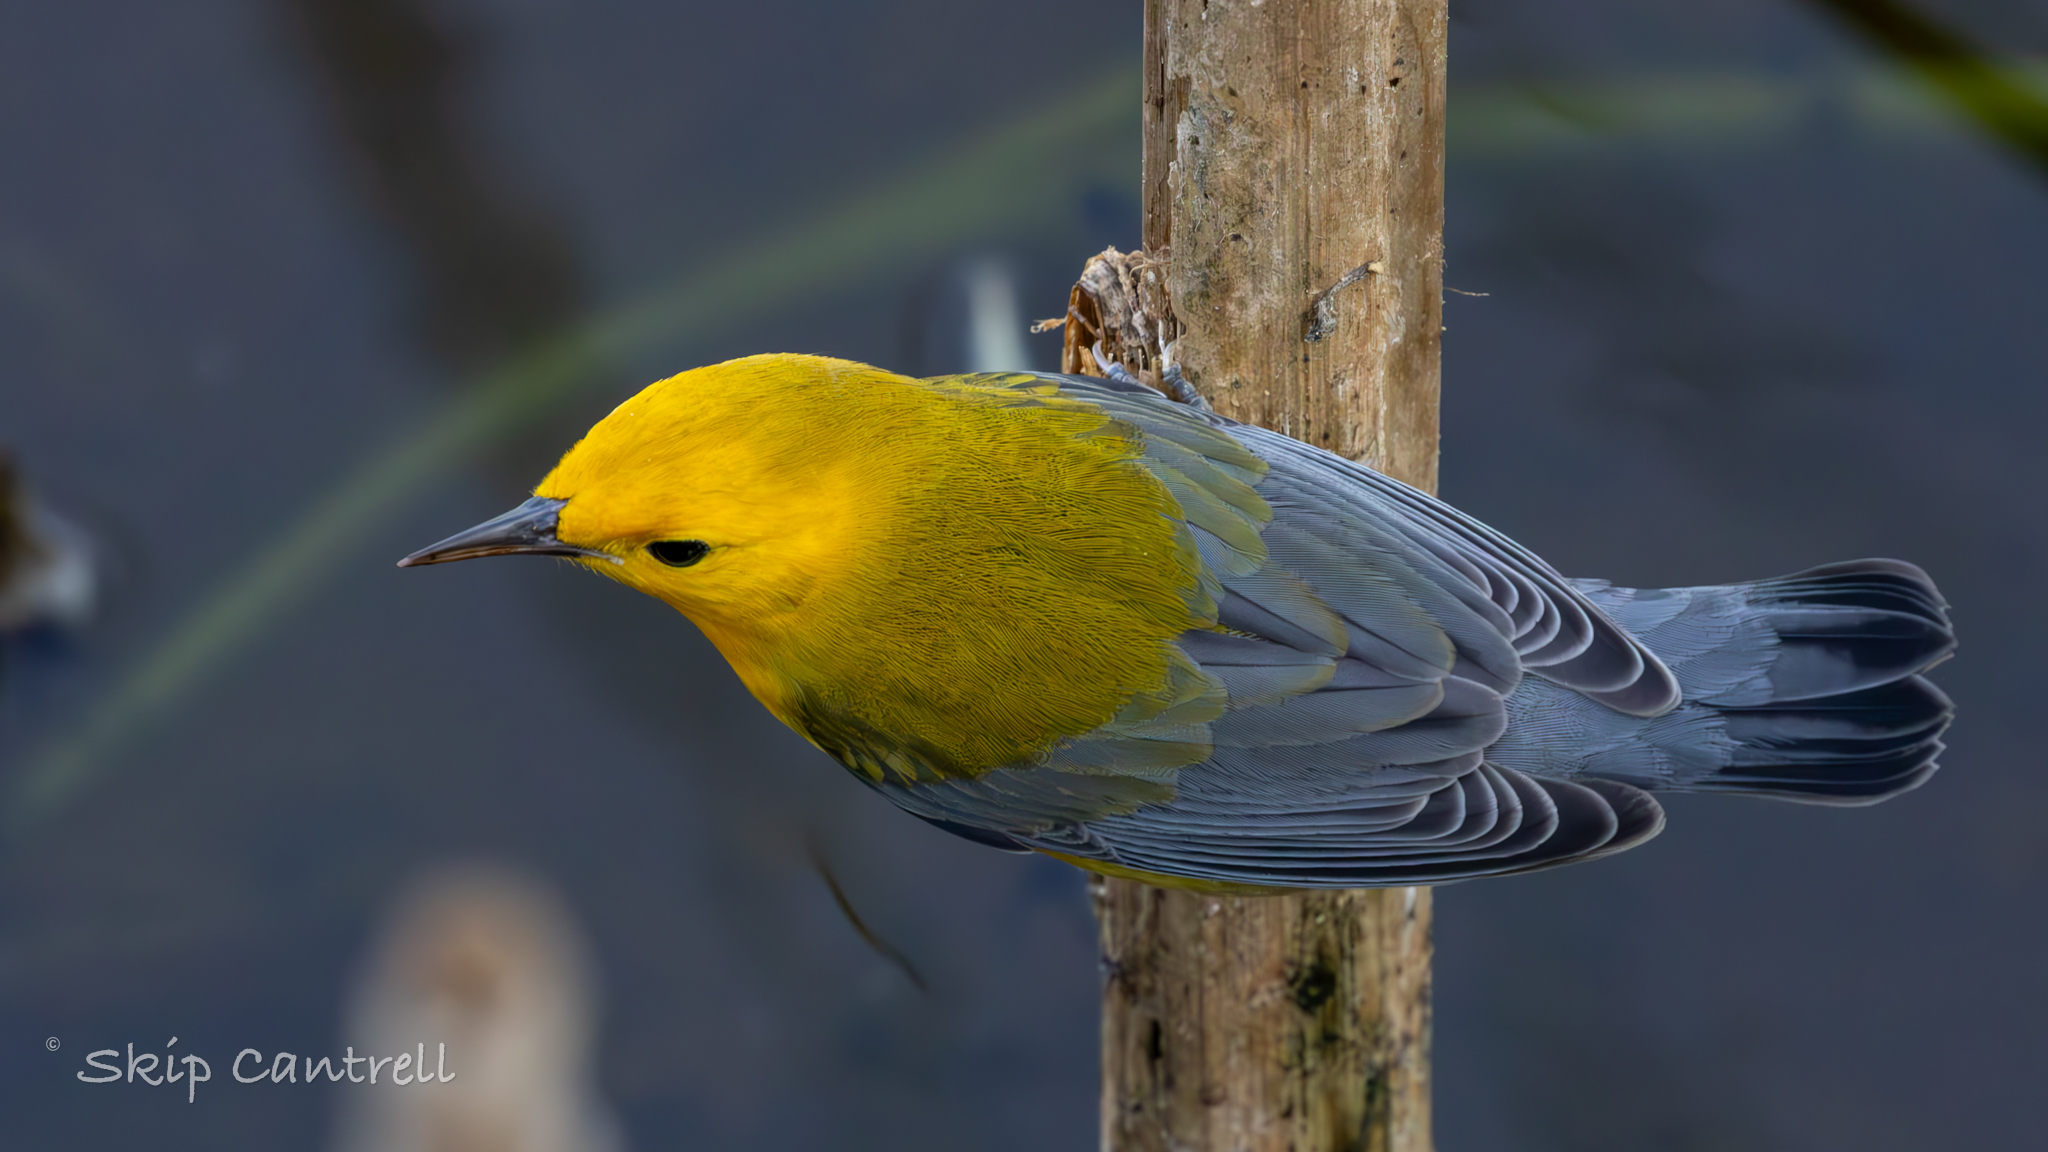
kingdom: Animalia
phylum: Chordata
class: Aves
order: Passeriformes
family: Parulidae
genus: Protonotaria
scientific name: Protonotaria citrea
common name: Prothonotary warbler
